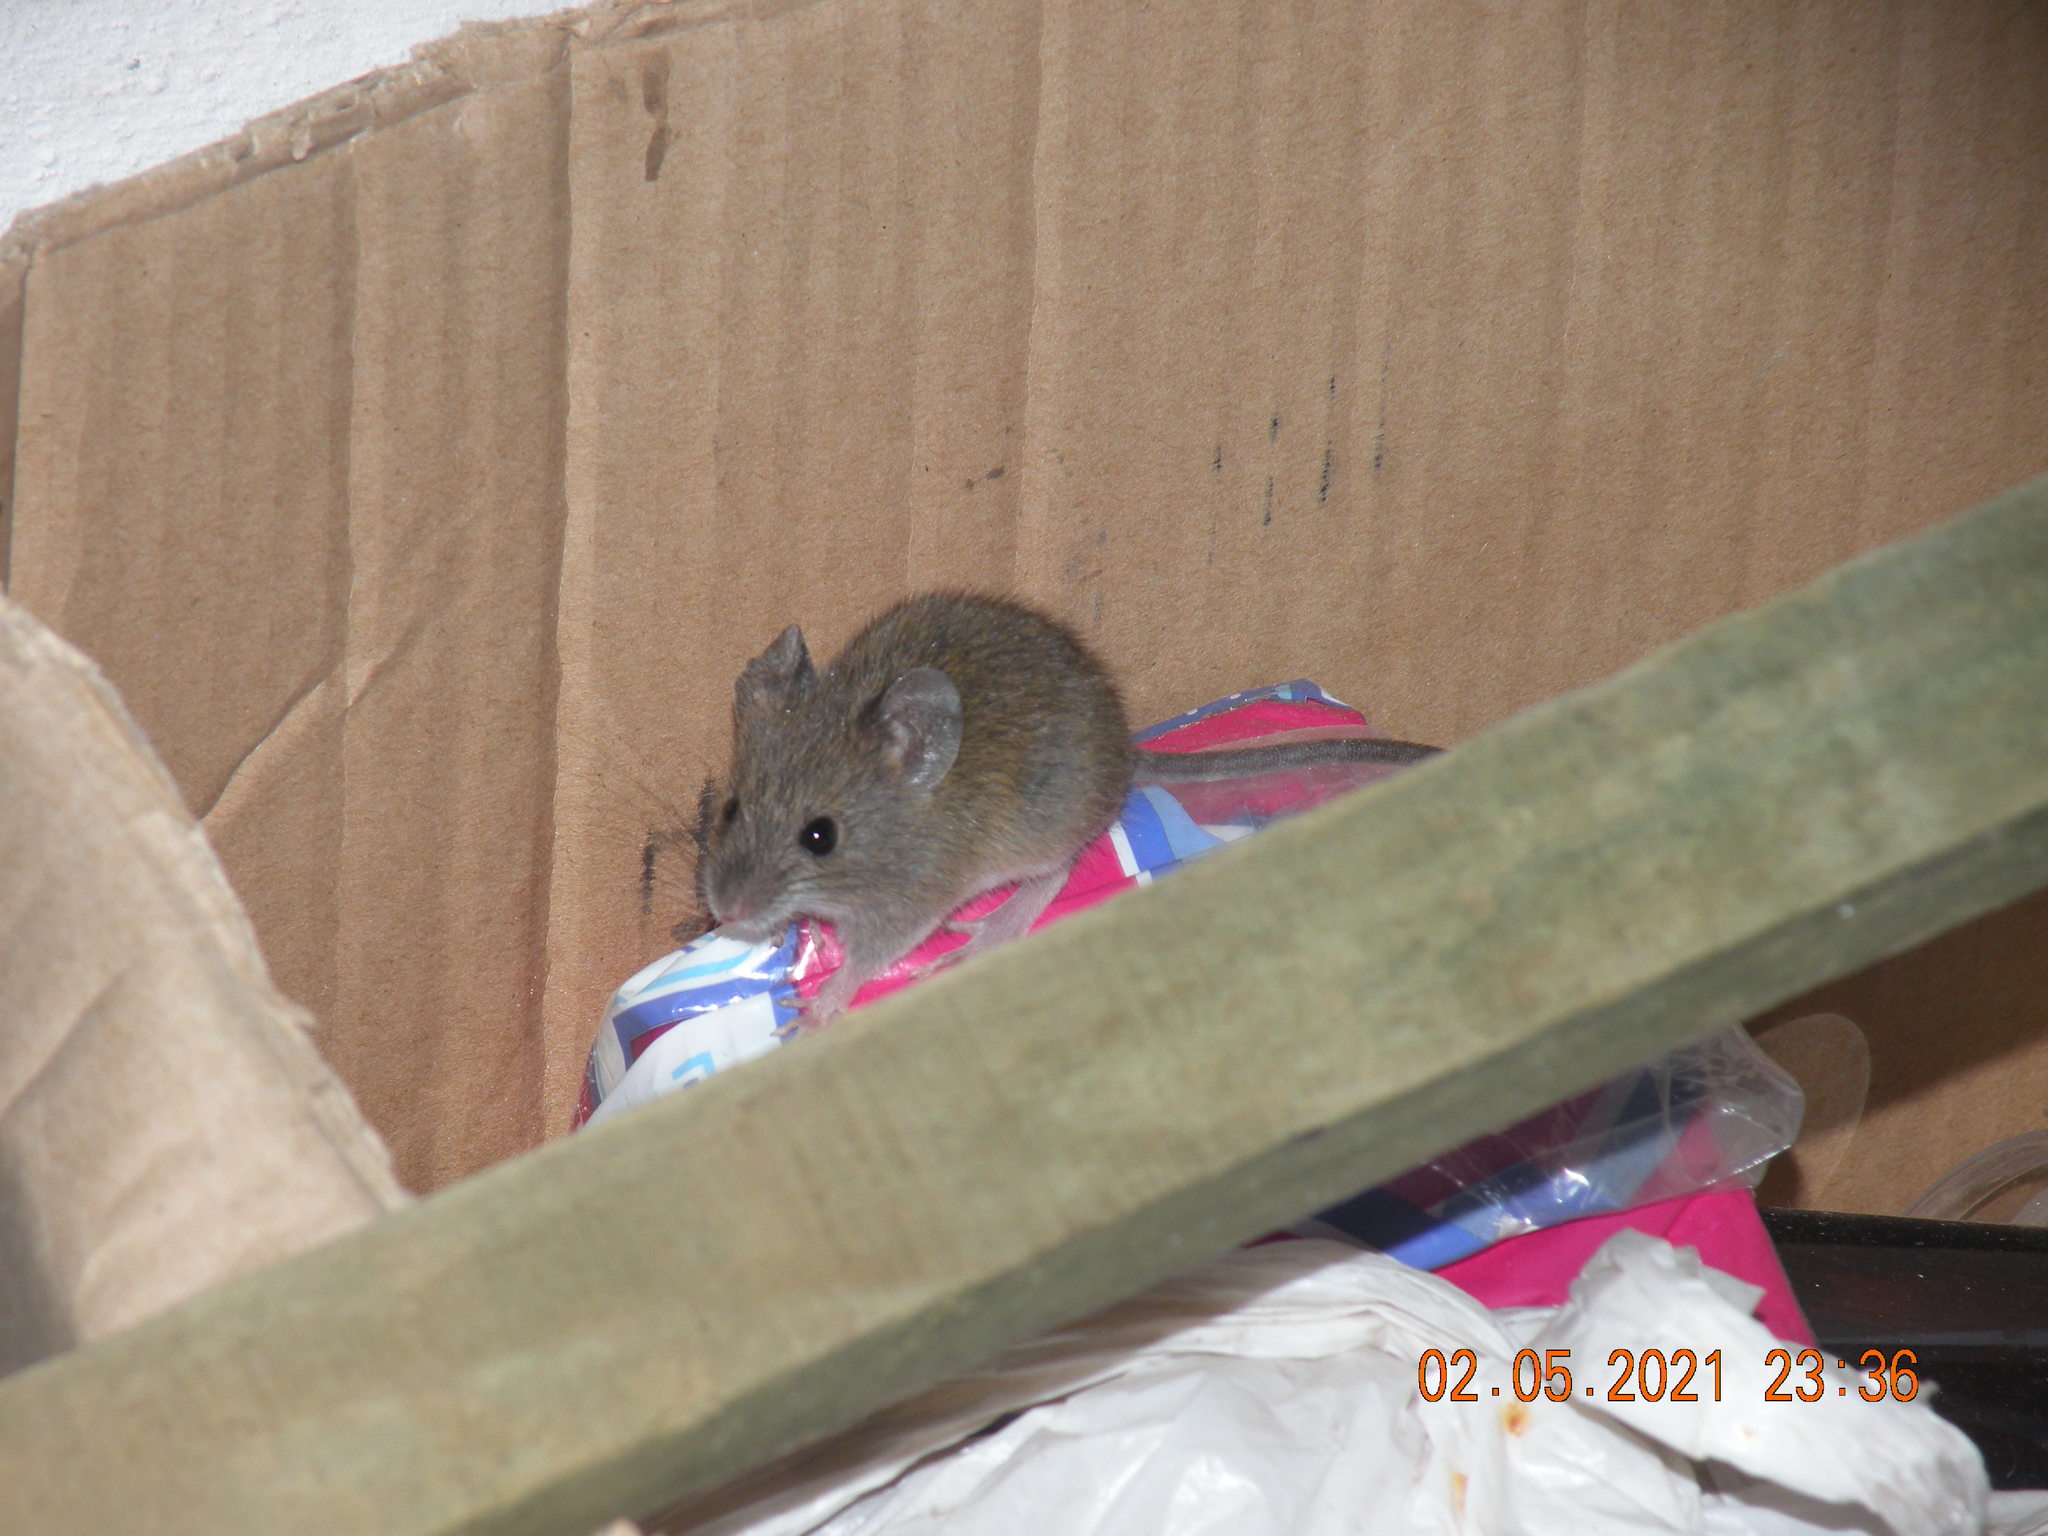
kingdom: Animalia
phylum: Chordata
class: Mammalia
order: Rodentia
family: Cricetidae
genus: Oligoryzomys
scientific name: Oligoryzomys nigripes
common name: Black-footed colilargo
